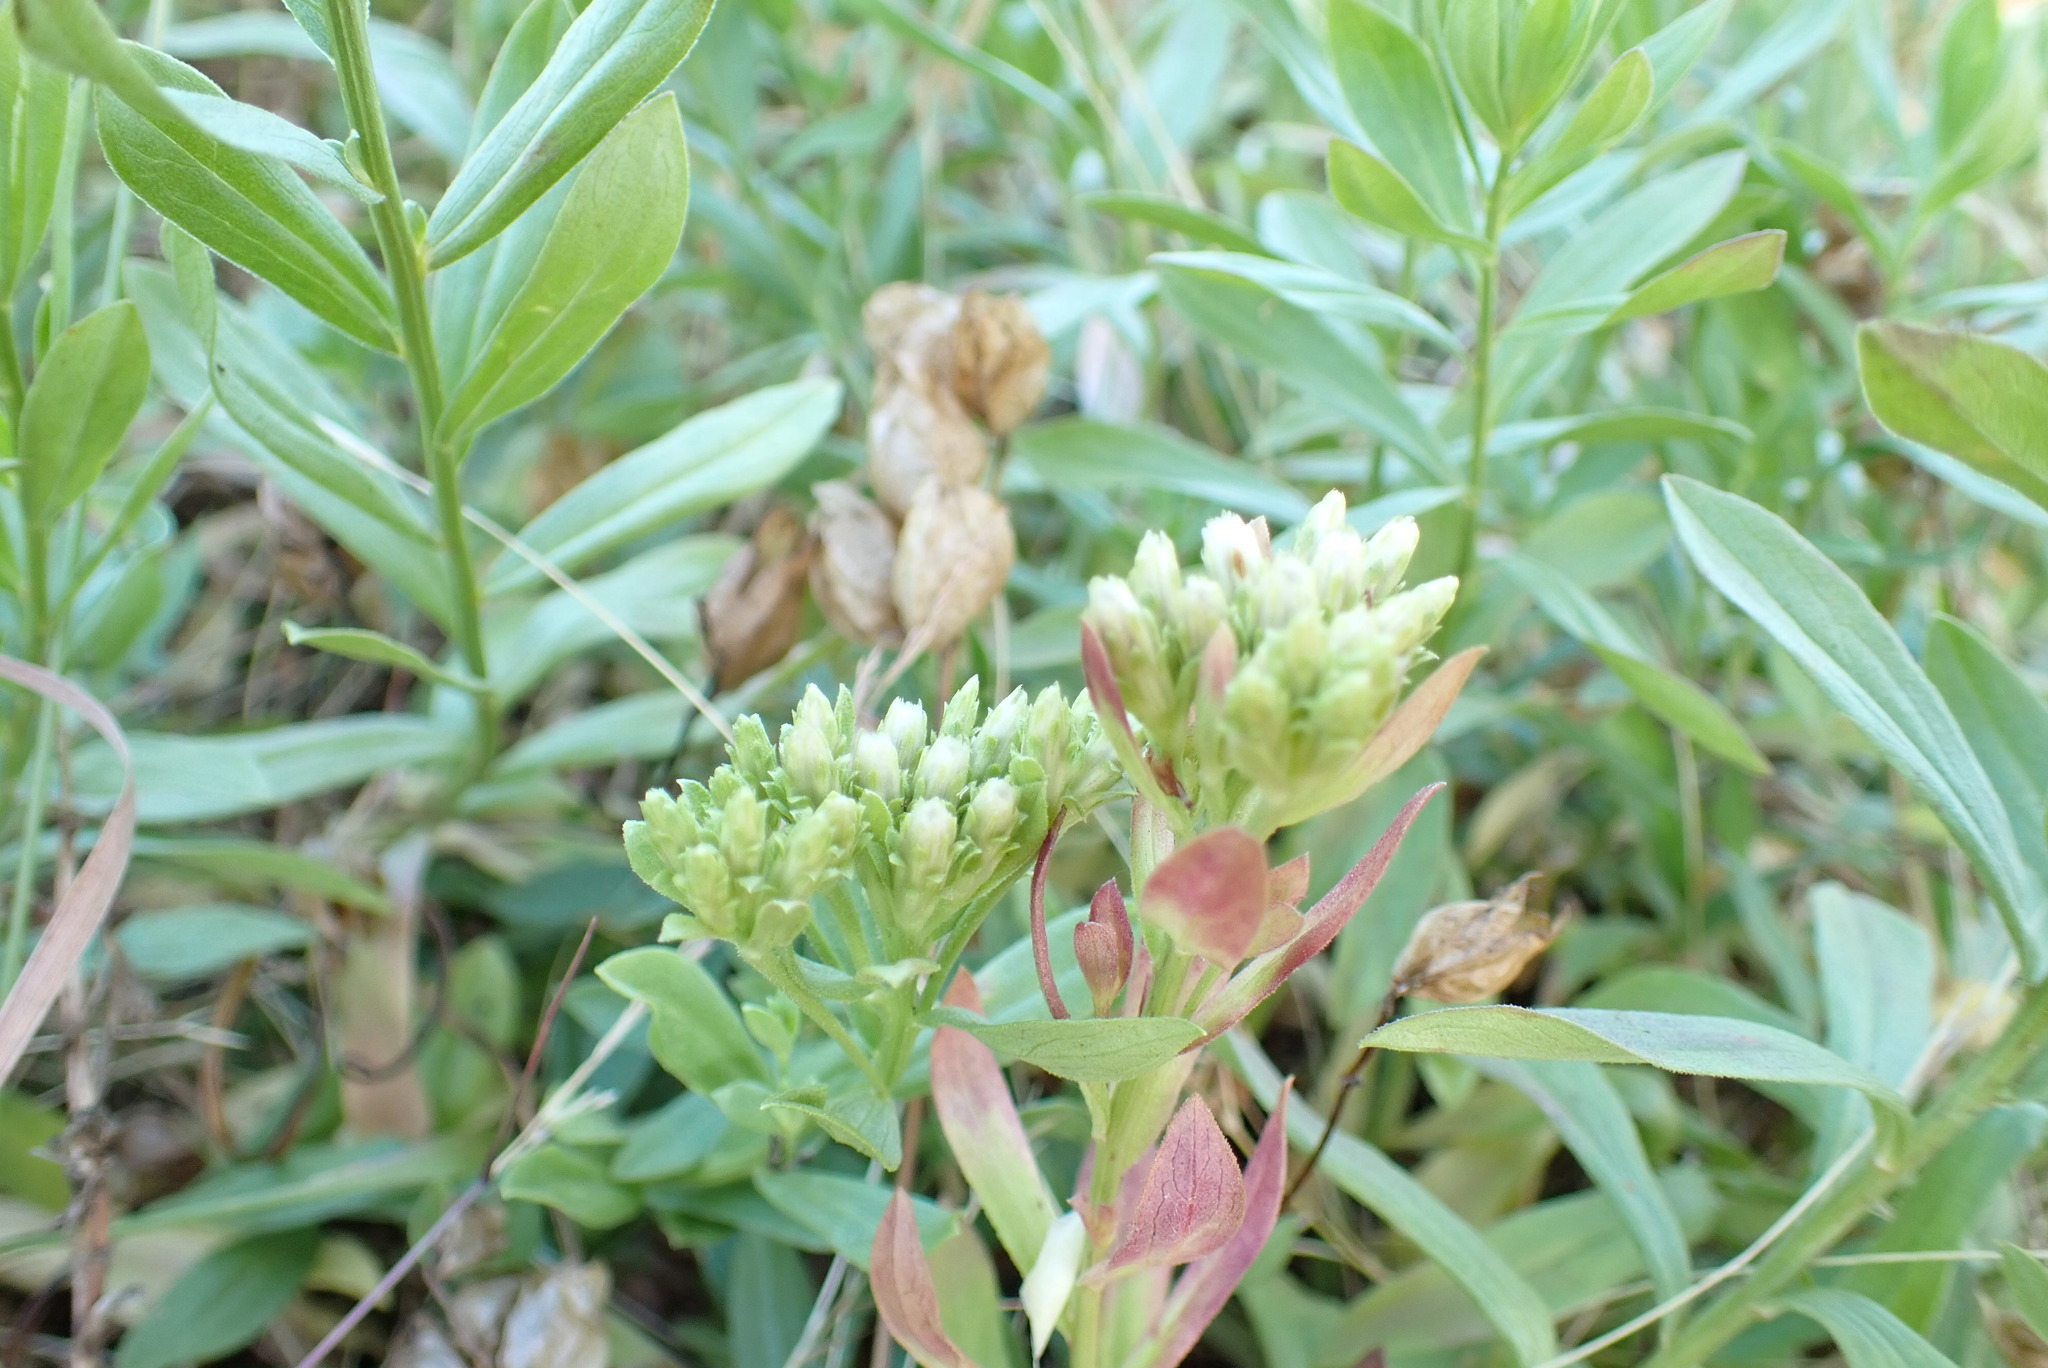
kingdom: Plantae
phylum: Tracheophyta
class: Magnoliopsida
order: Asterales
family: Asteraceae
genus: Sericocarpus
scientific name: Sericocarpus rigidus
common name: Columbia white-top aster
